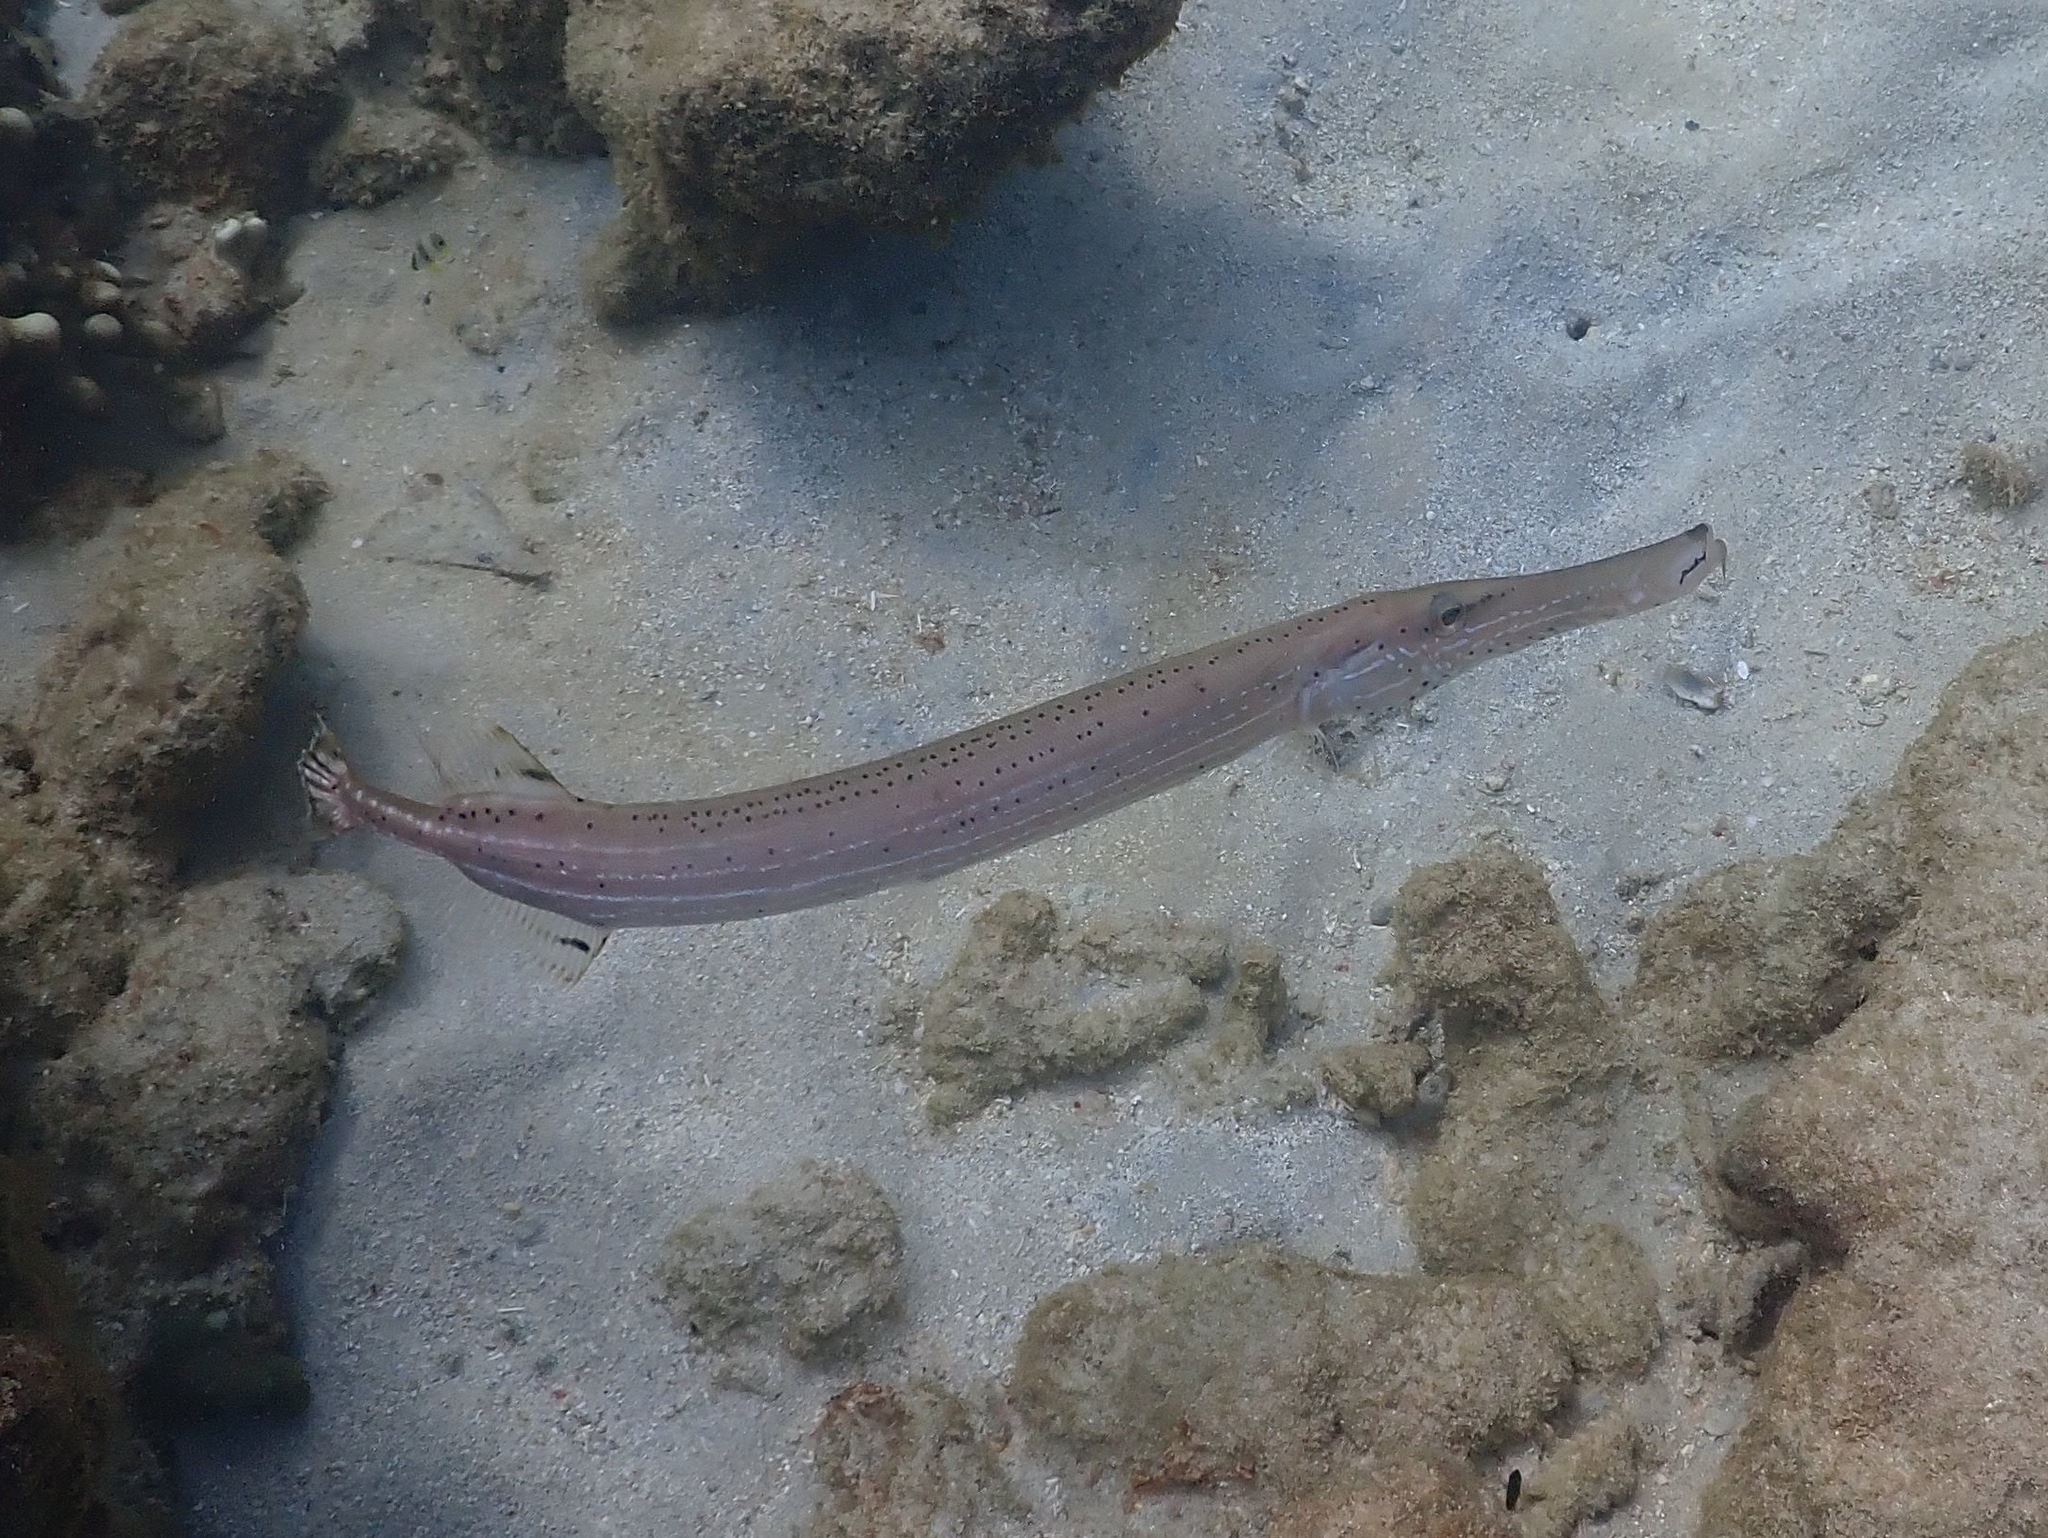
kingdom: Animalia
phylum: Chordata
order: Syngnathiformes
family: Aulostomidae
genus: Aulostomus
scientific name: Aulostomus maculatus
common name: West atlantic trumpetfish
